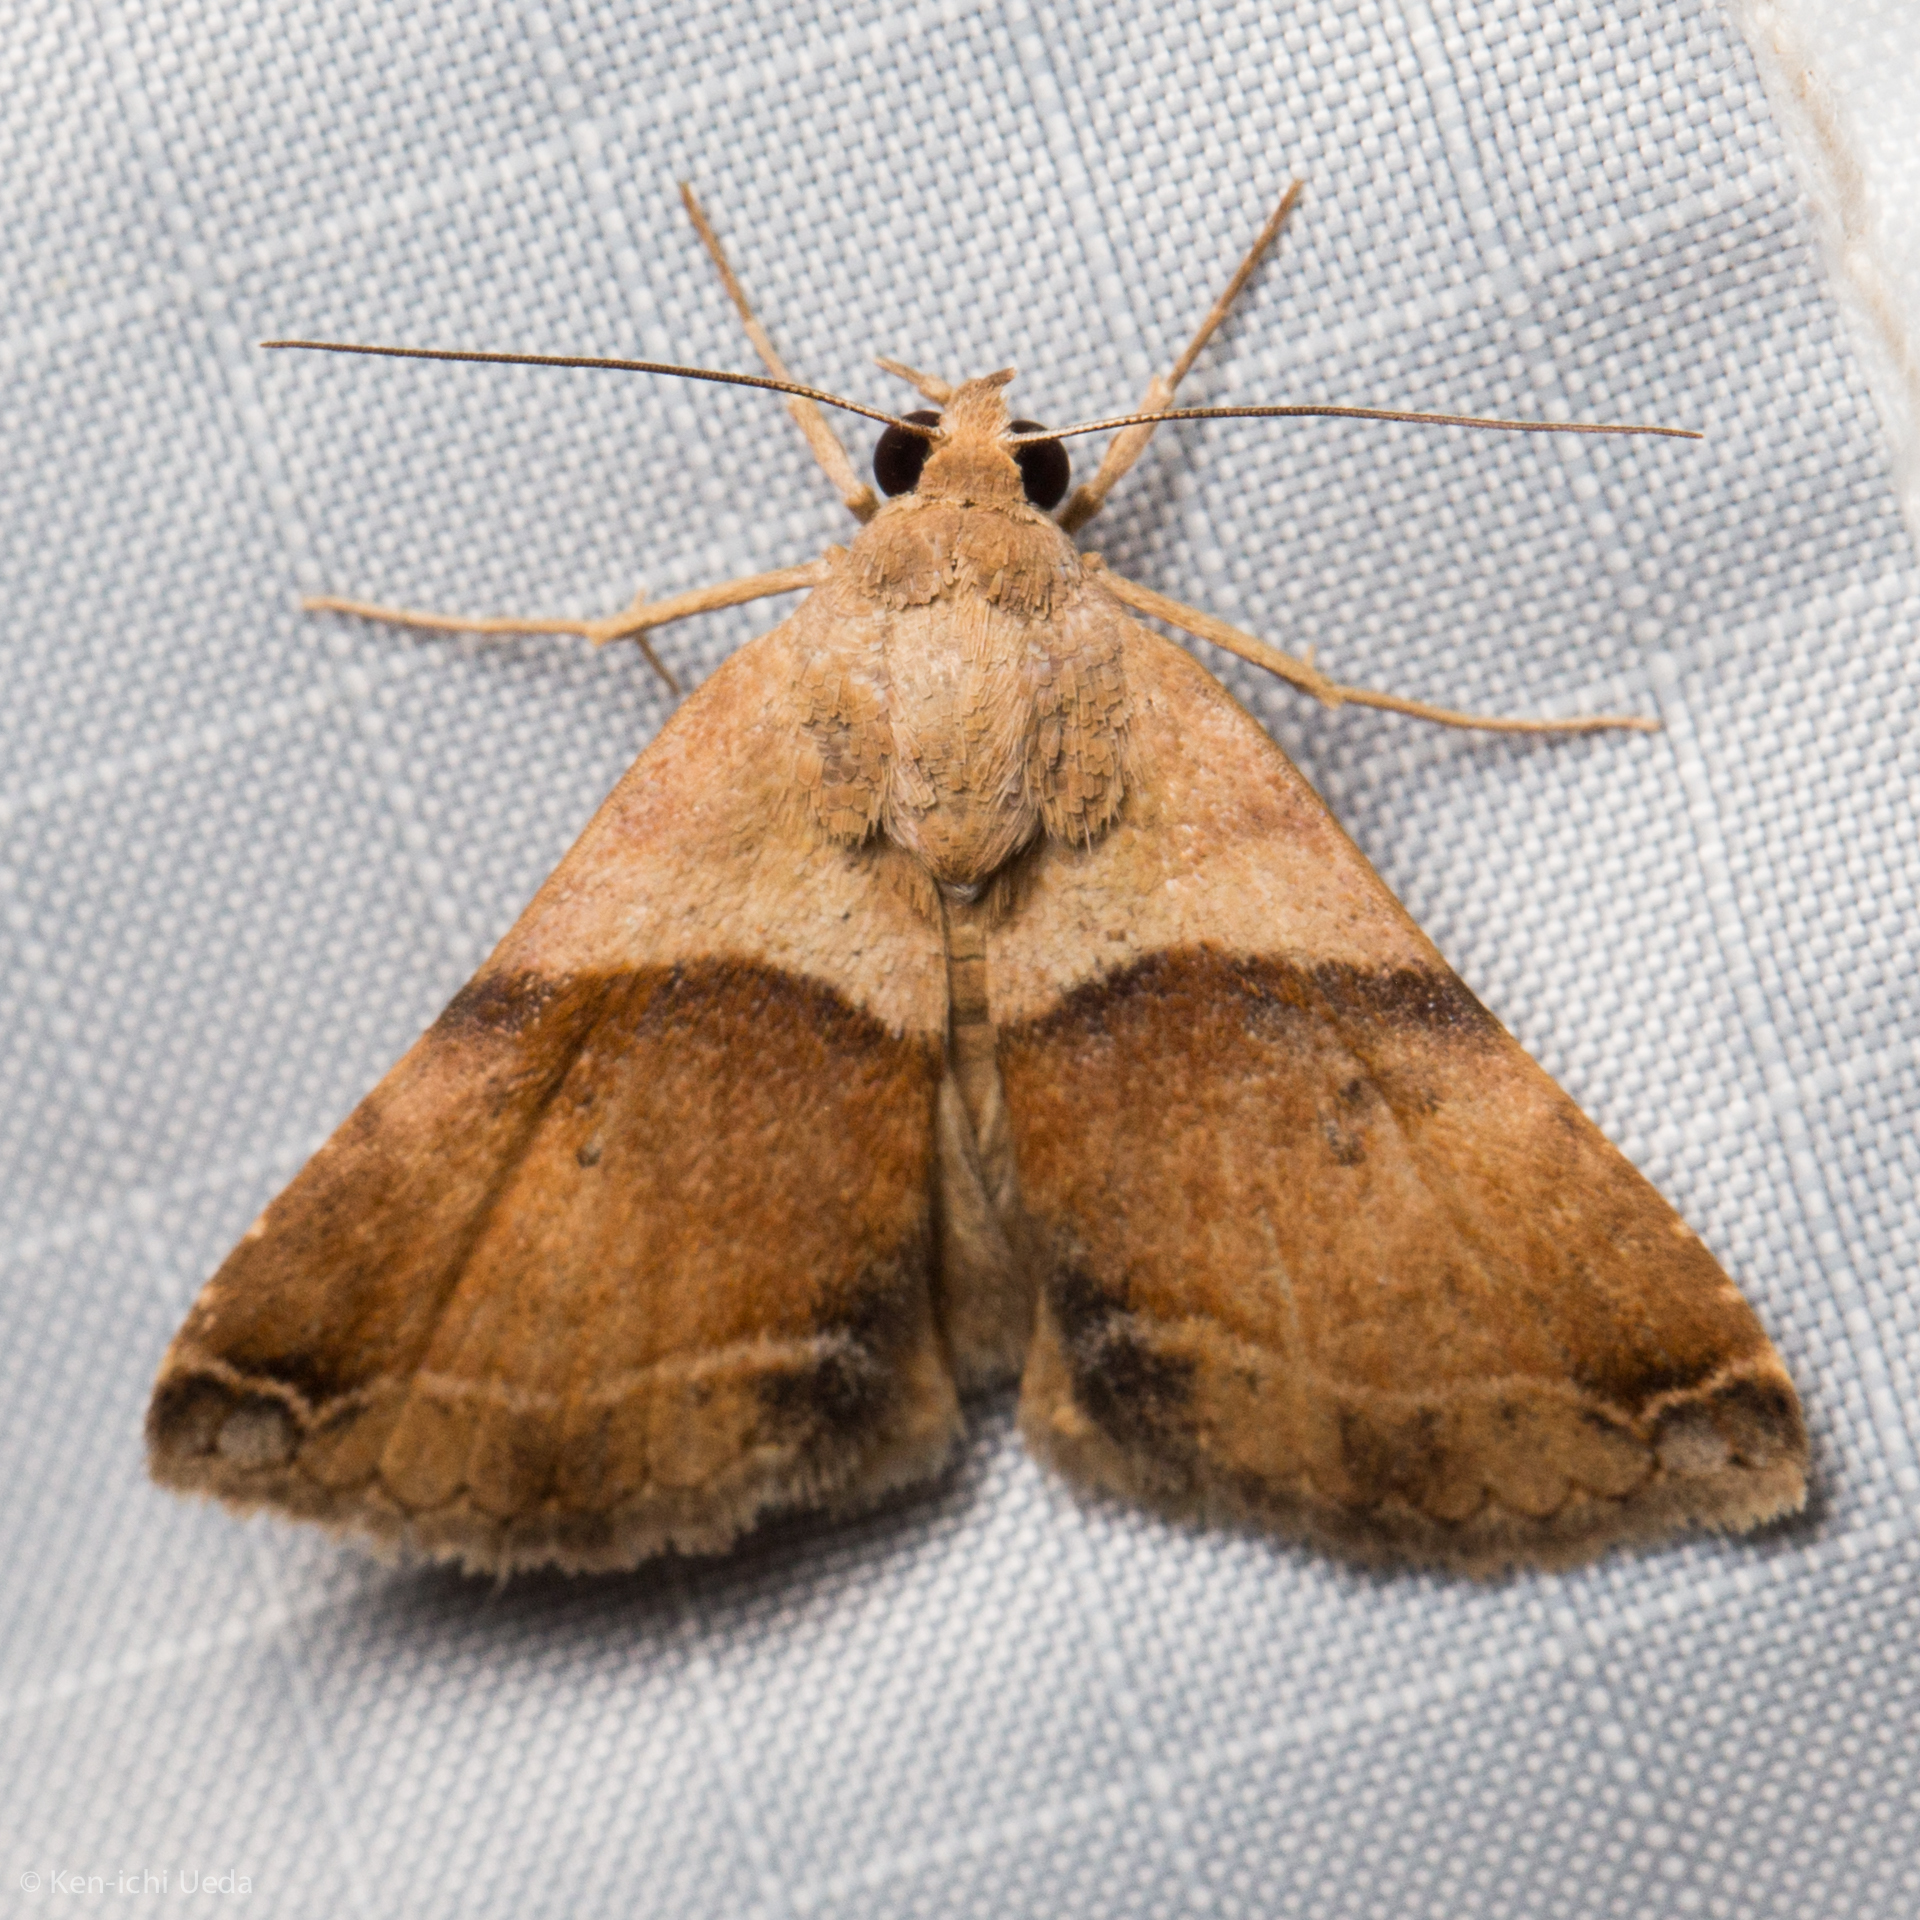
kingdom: Animalia
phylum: Arthropoda
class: Insecta
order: Lepidoptera
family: Erebidae
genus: Panula
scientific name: Panula inconstans
